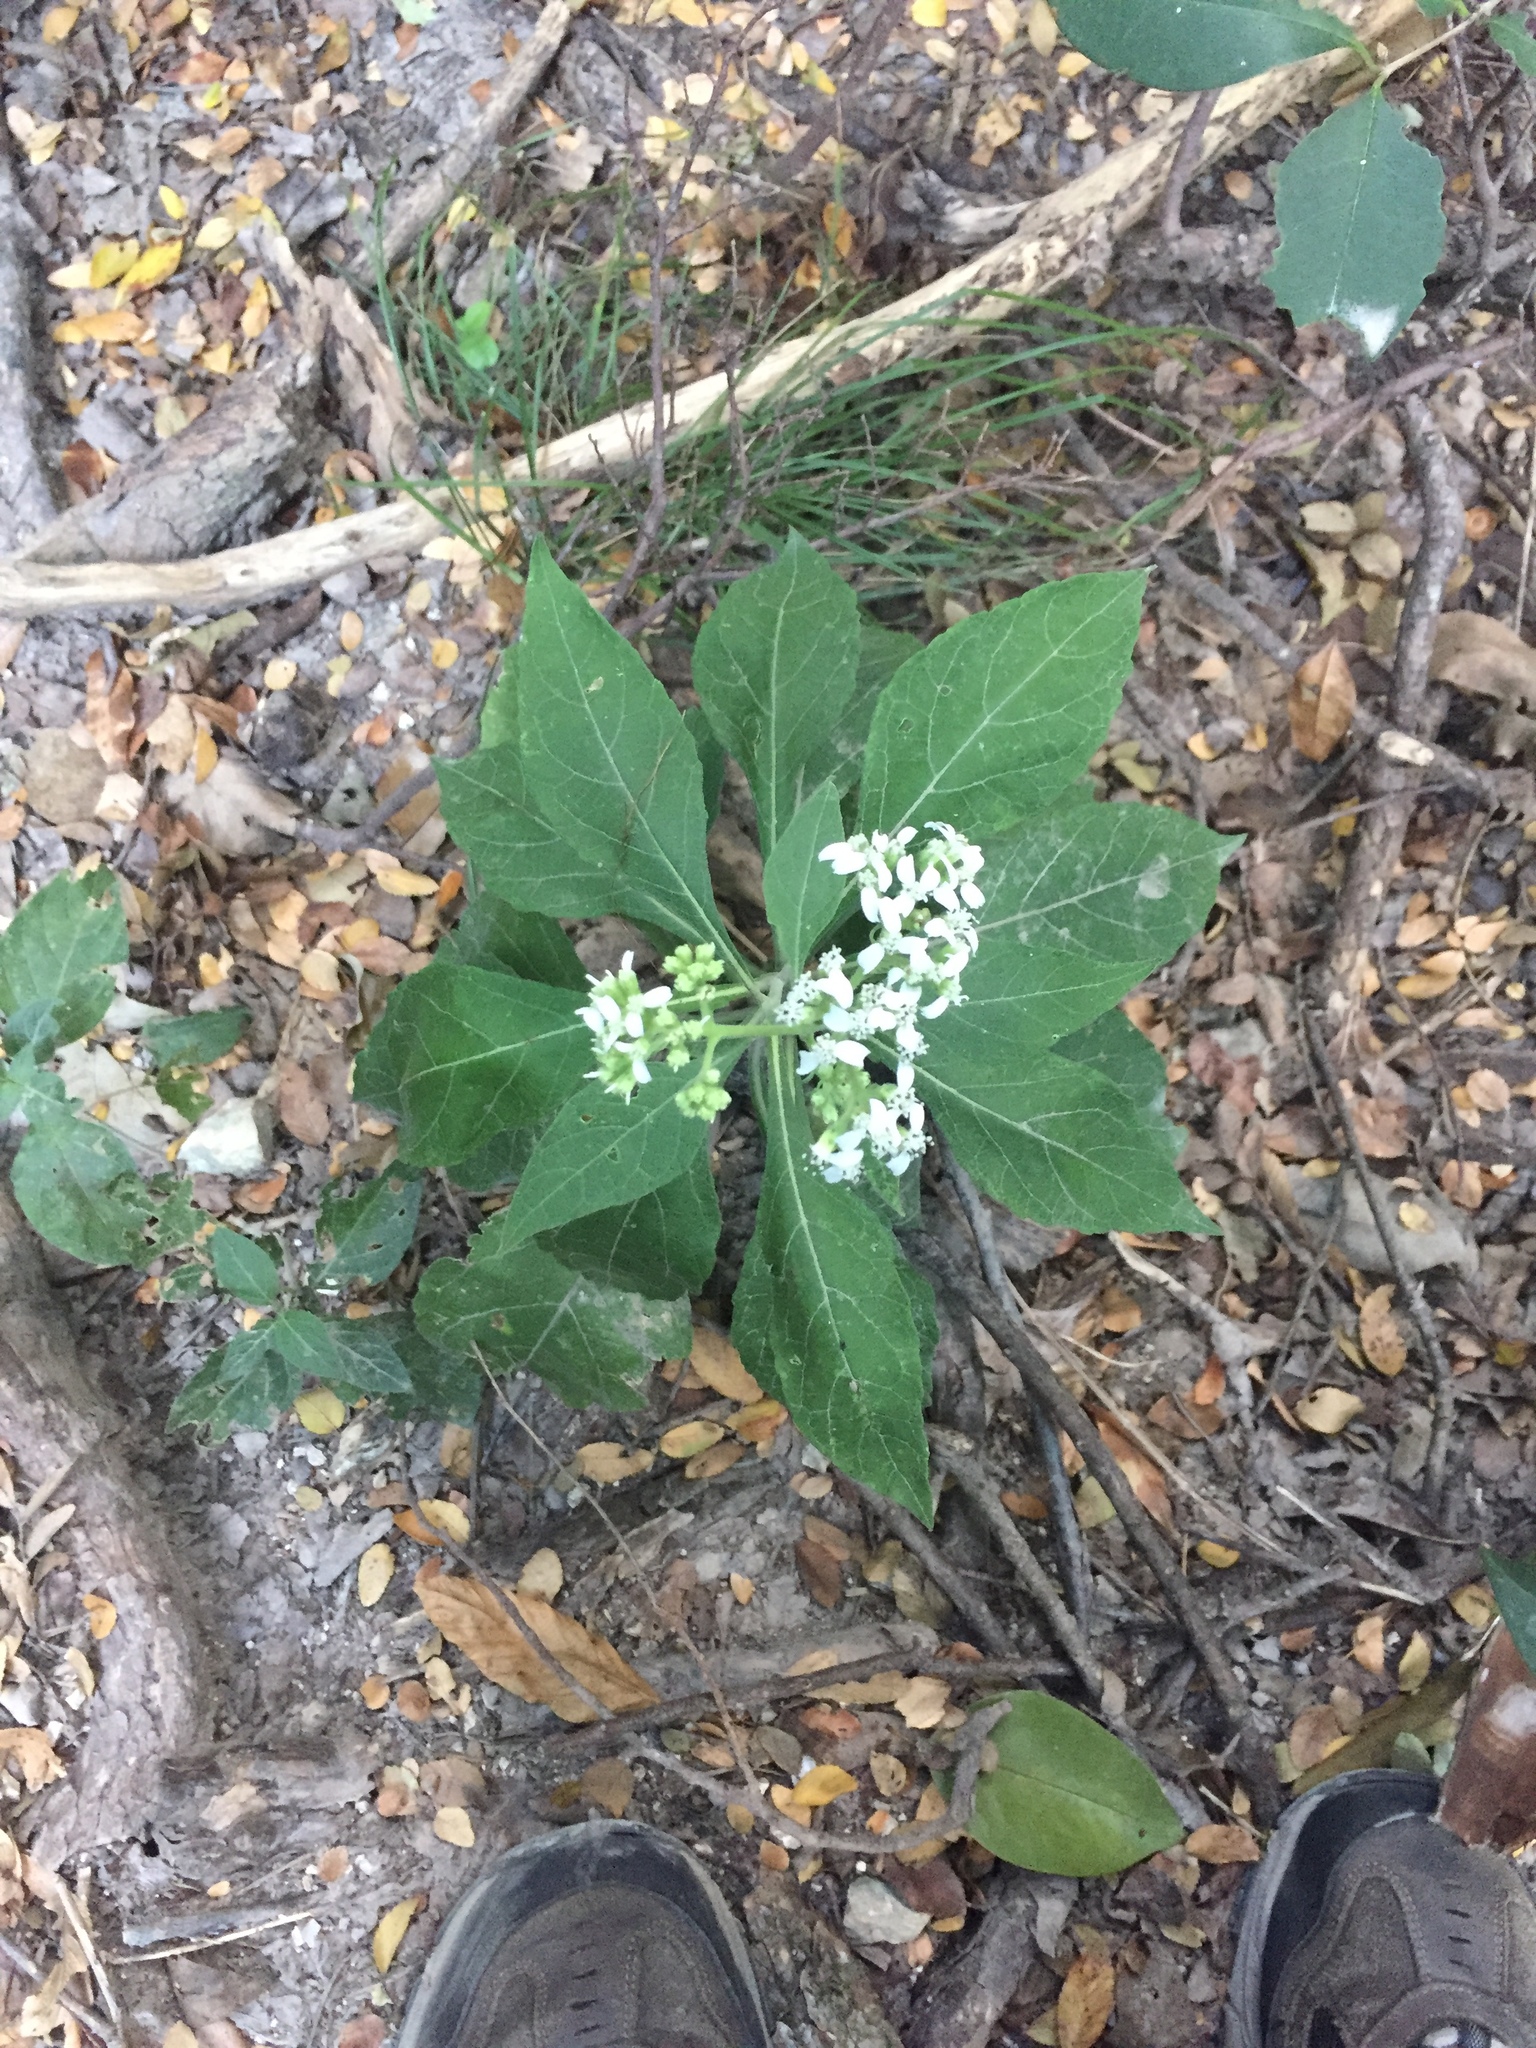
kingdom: Plantae
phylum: Tracheophyta
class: Magnoliopsida
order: Asterales
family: Asteraceae
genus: Verbesina
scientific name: Verbesina virginica
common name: Frostweed
